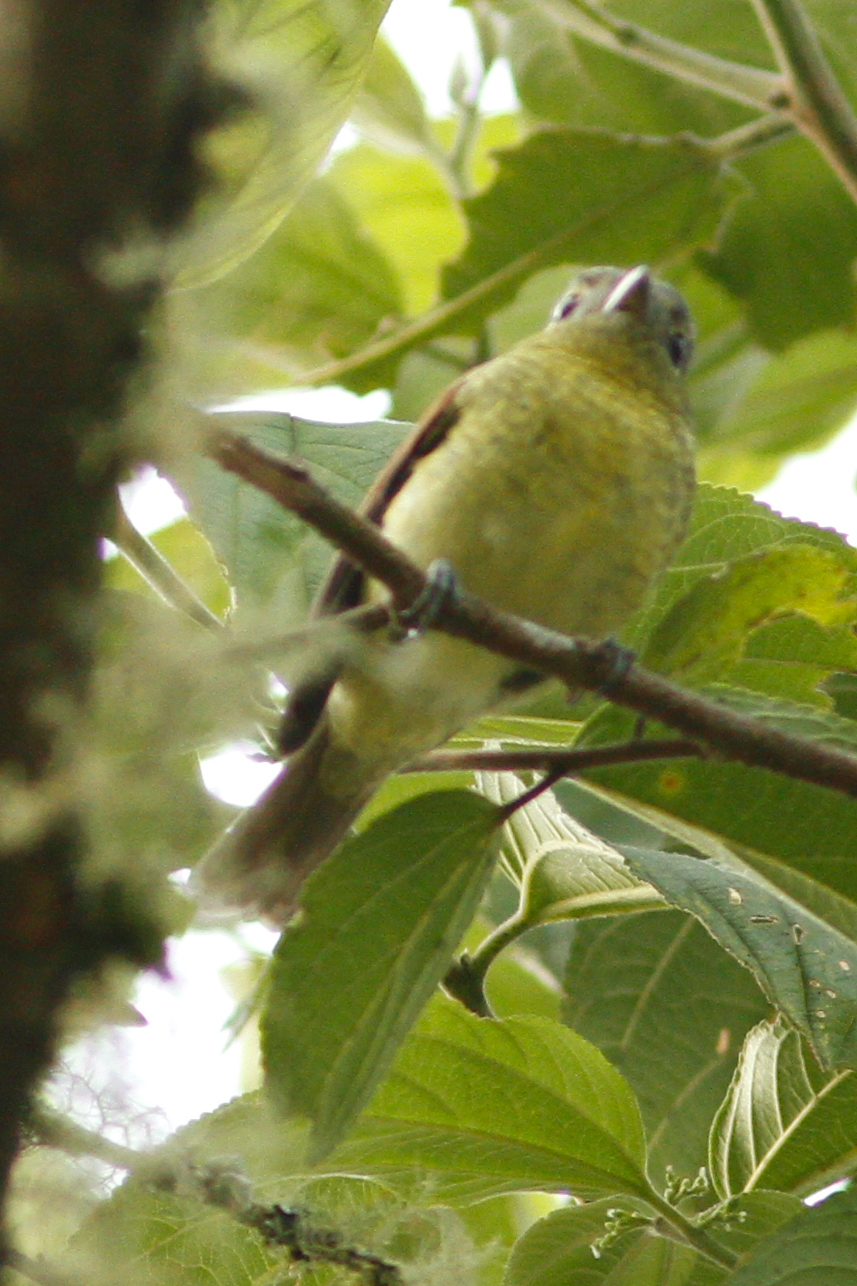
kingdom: Animalia
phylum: Chordata
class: Aves
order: Passeriformes
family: Cotingidae
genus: Pachyramphus
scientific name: Pachyramphus versicolor
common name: Barred becard
